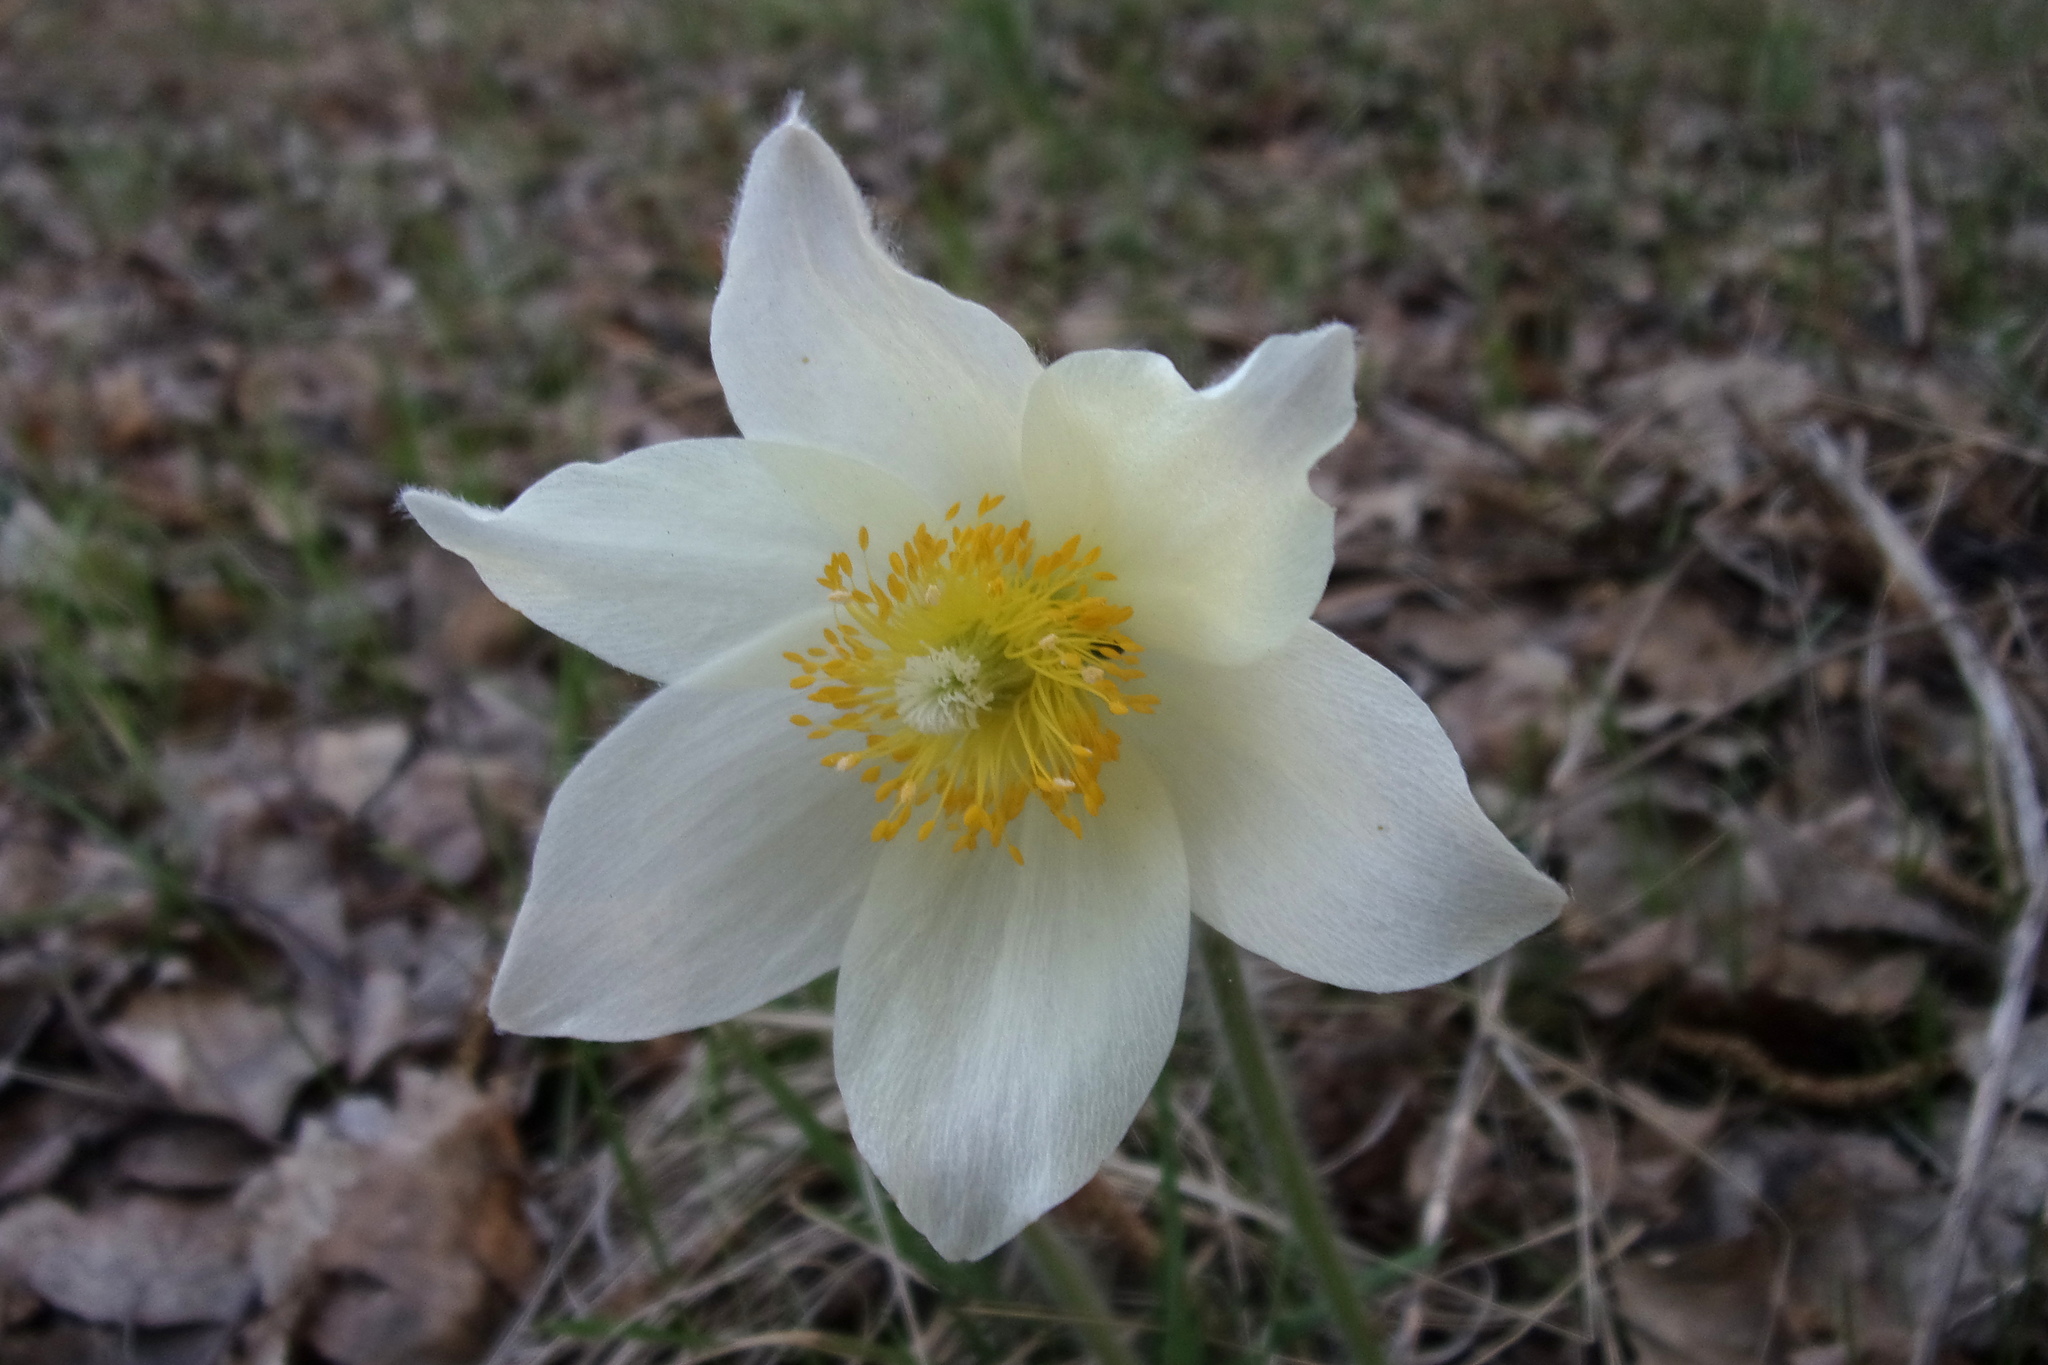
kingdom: Plantae
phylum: Tracheophyta
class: Magnoliopsida
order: Ranunculales
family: Ranunculaceae
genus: Pulsatilla
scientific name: Pulsatilla patens
